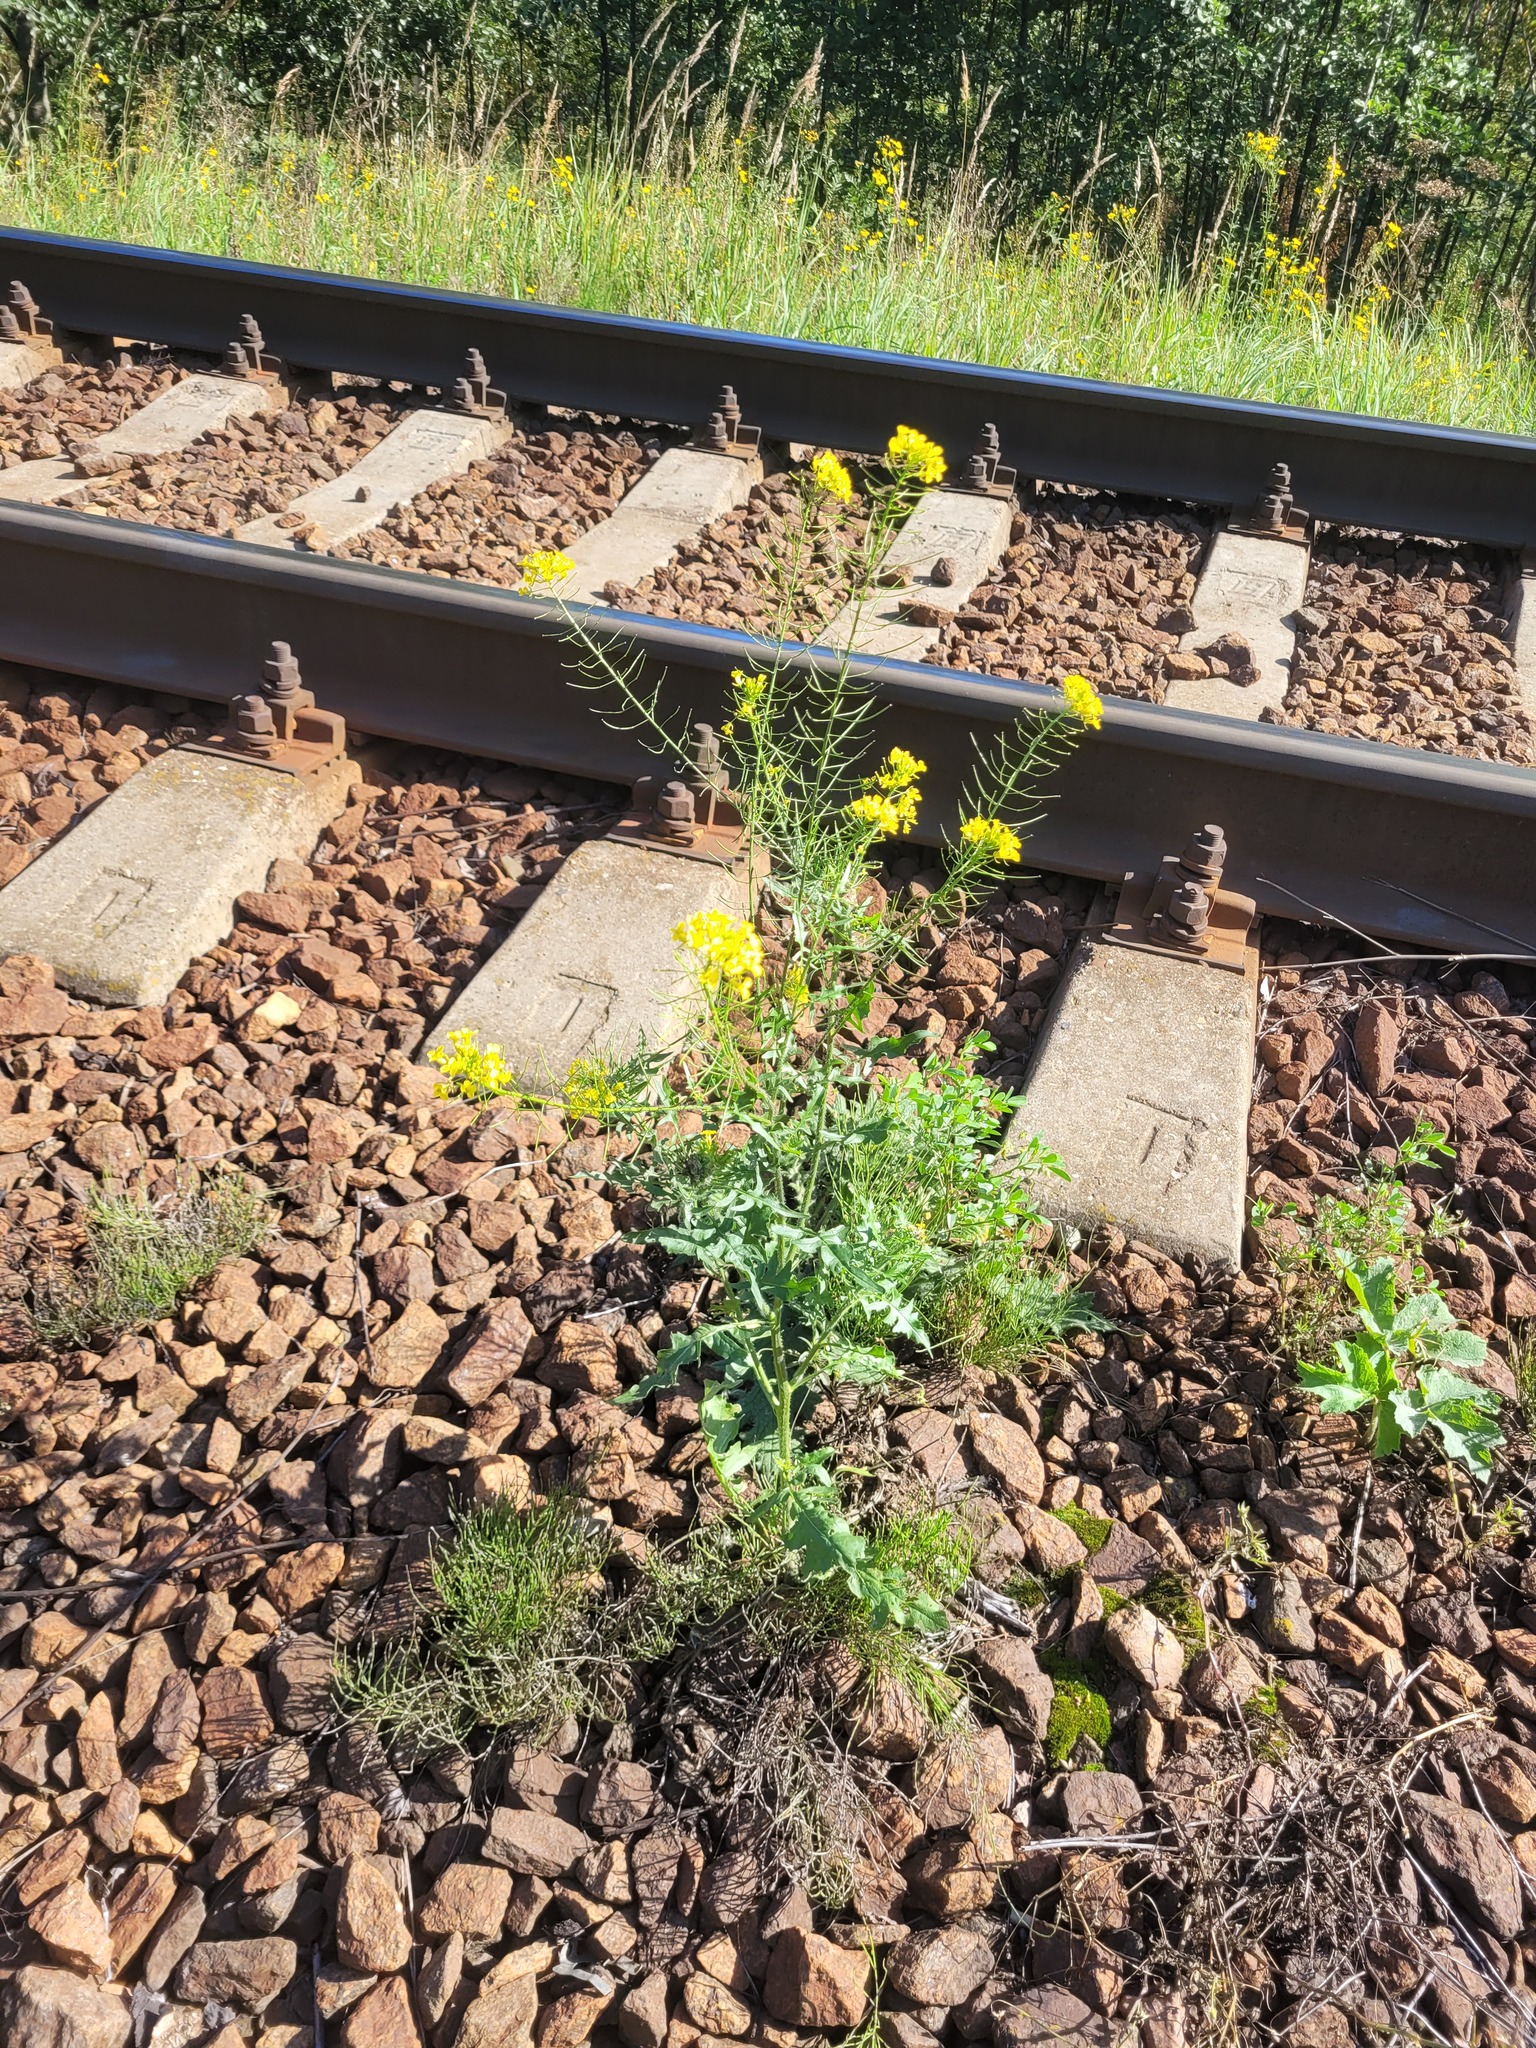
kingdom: Plantae
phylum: Tracheophyta
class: Magnoliopsida
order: Brassicales
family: Brassicaceae
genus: Sisymbrium
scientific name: Sisymbrium loeselii
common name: False london-rocket
